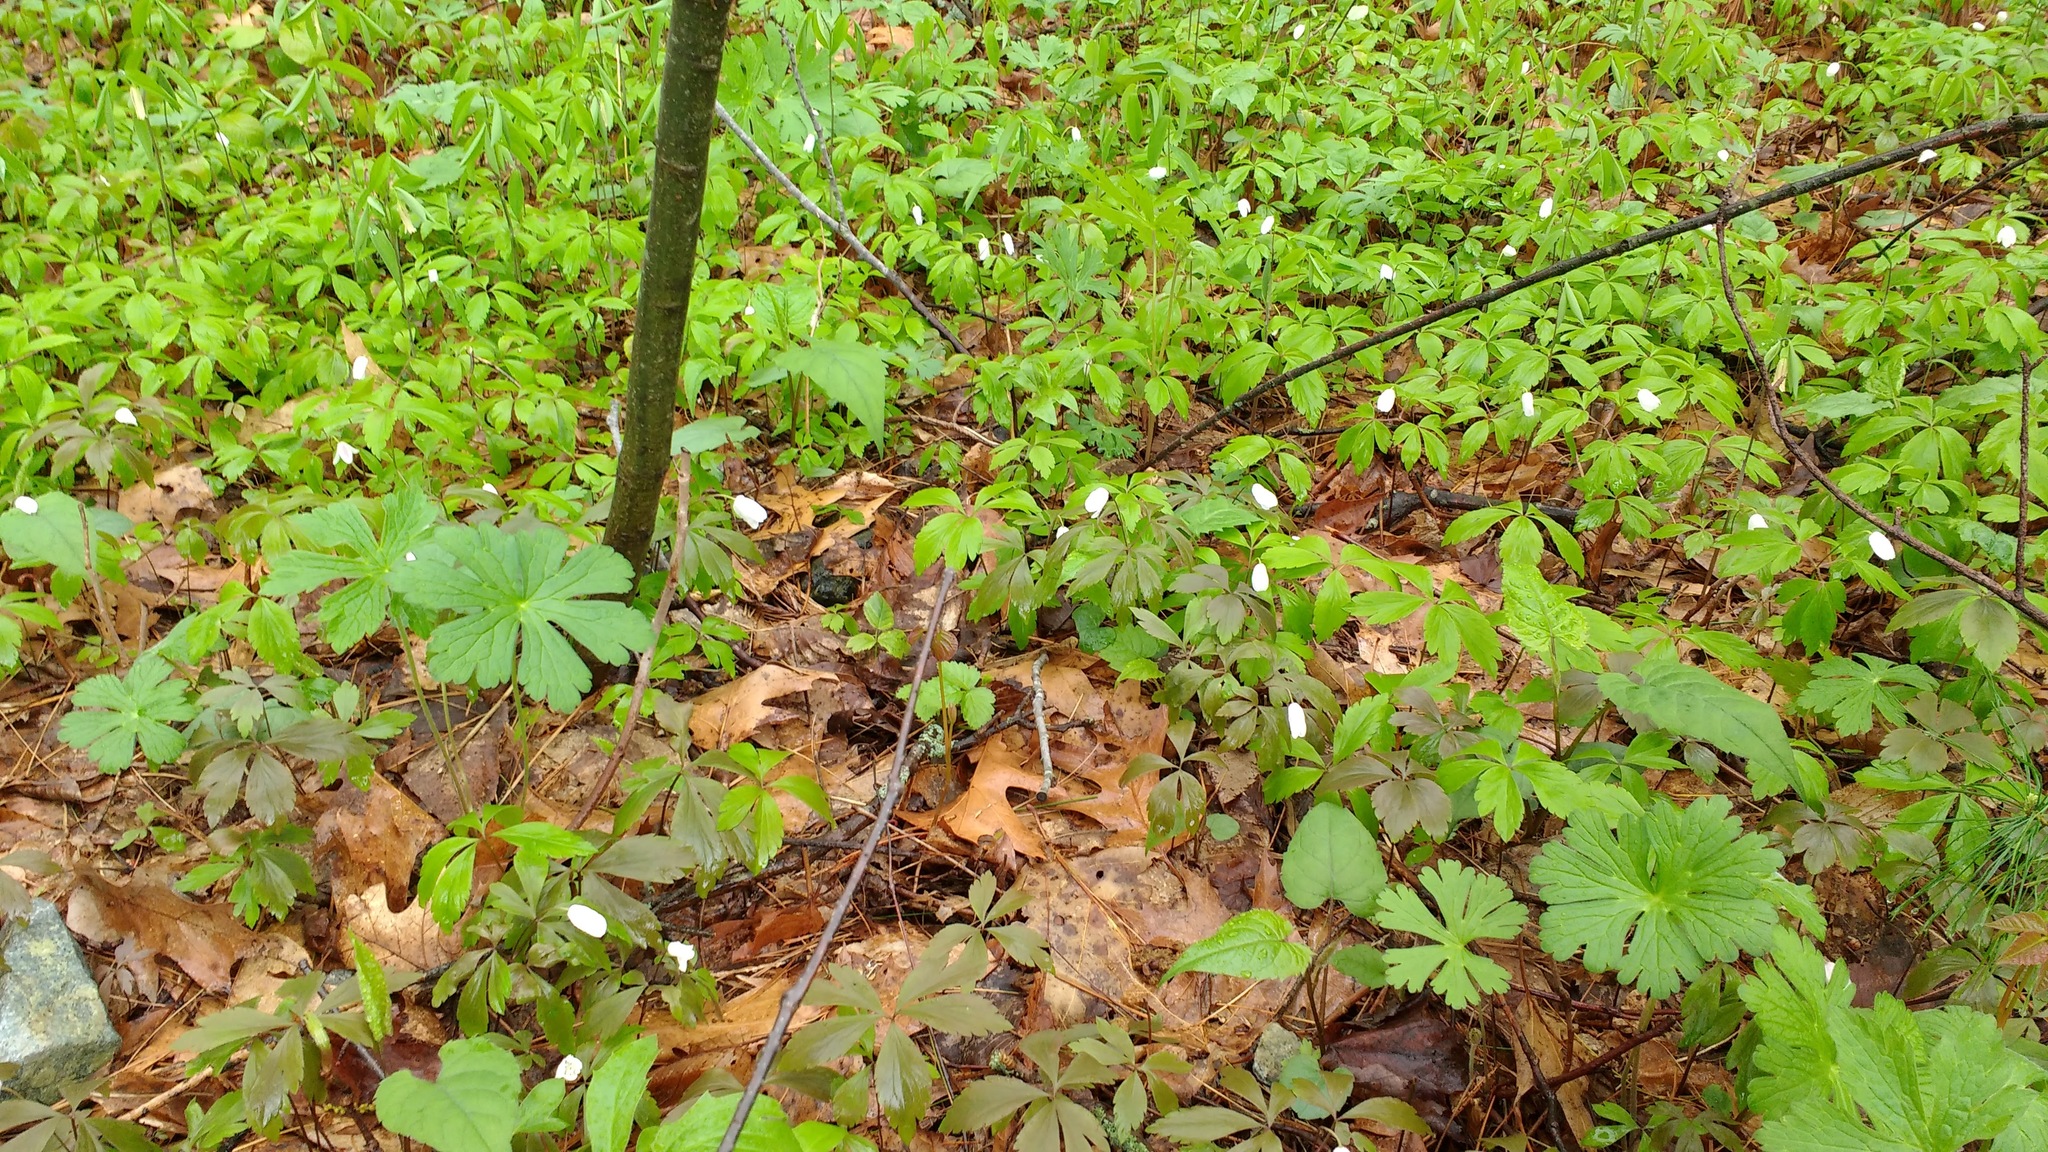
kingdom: Plantae
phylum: Tracheophyta
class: Magnoliopsida
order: Ranunculales
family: Ranunculaceae
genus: Anemone
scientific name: Anemone quinquefolia
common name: Wood anemone
